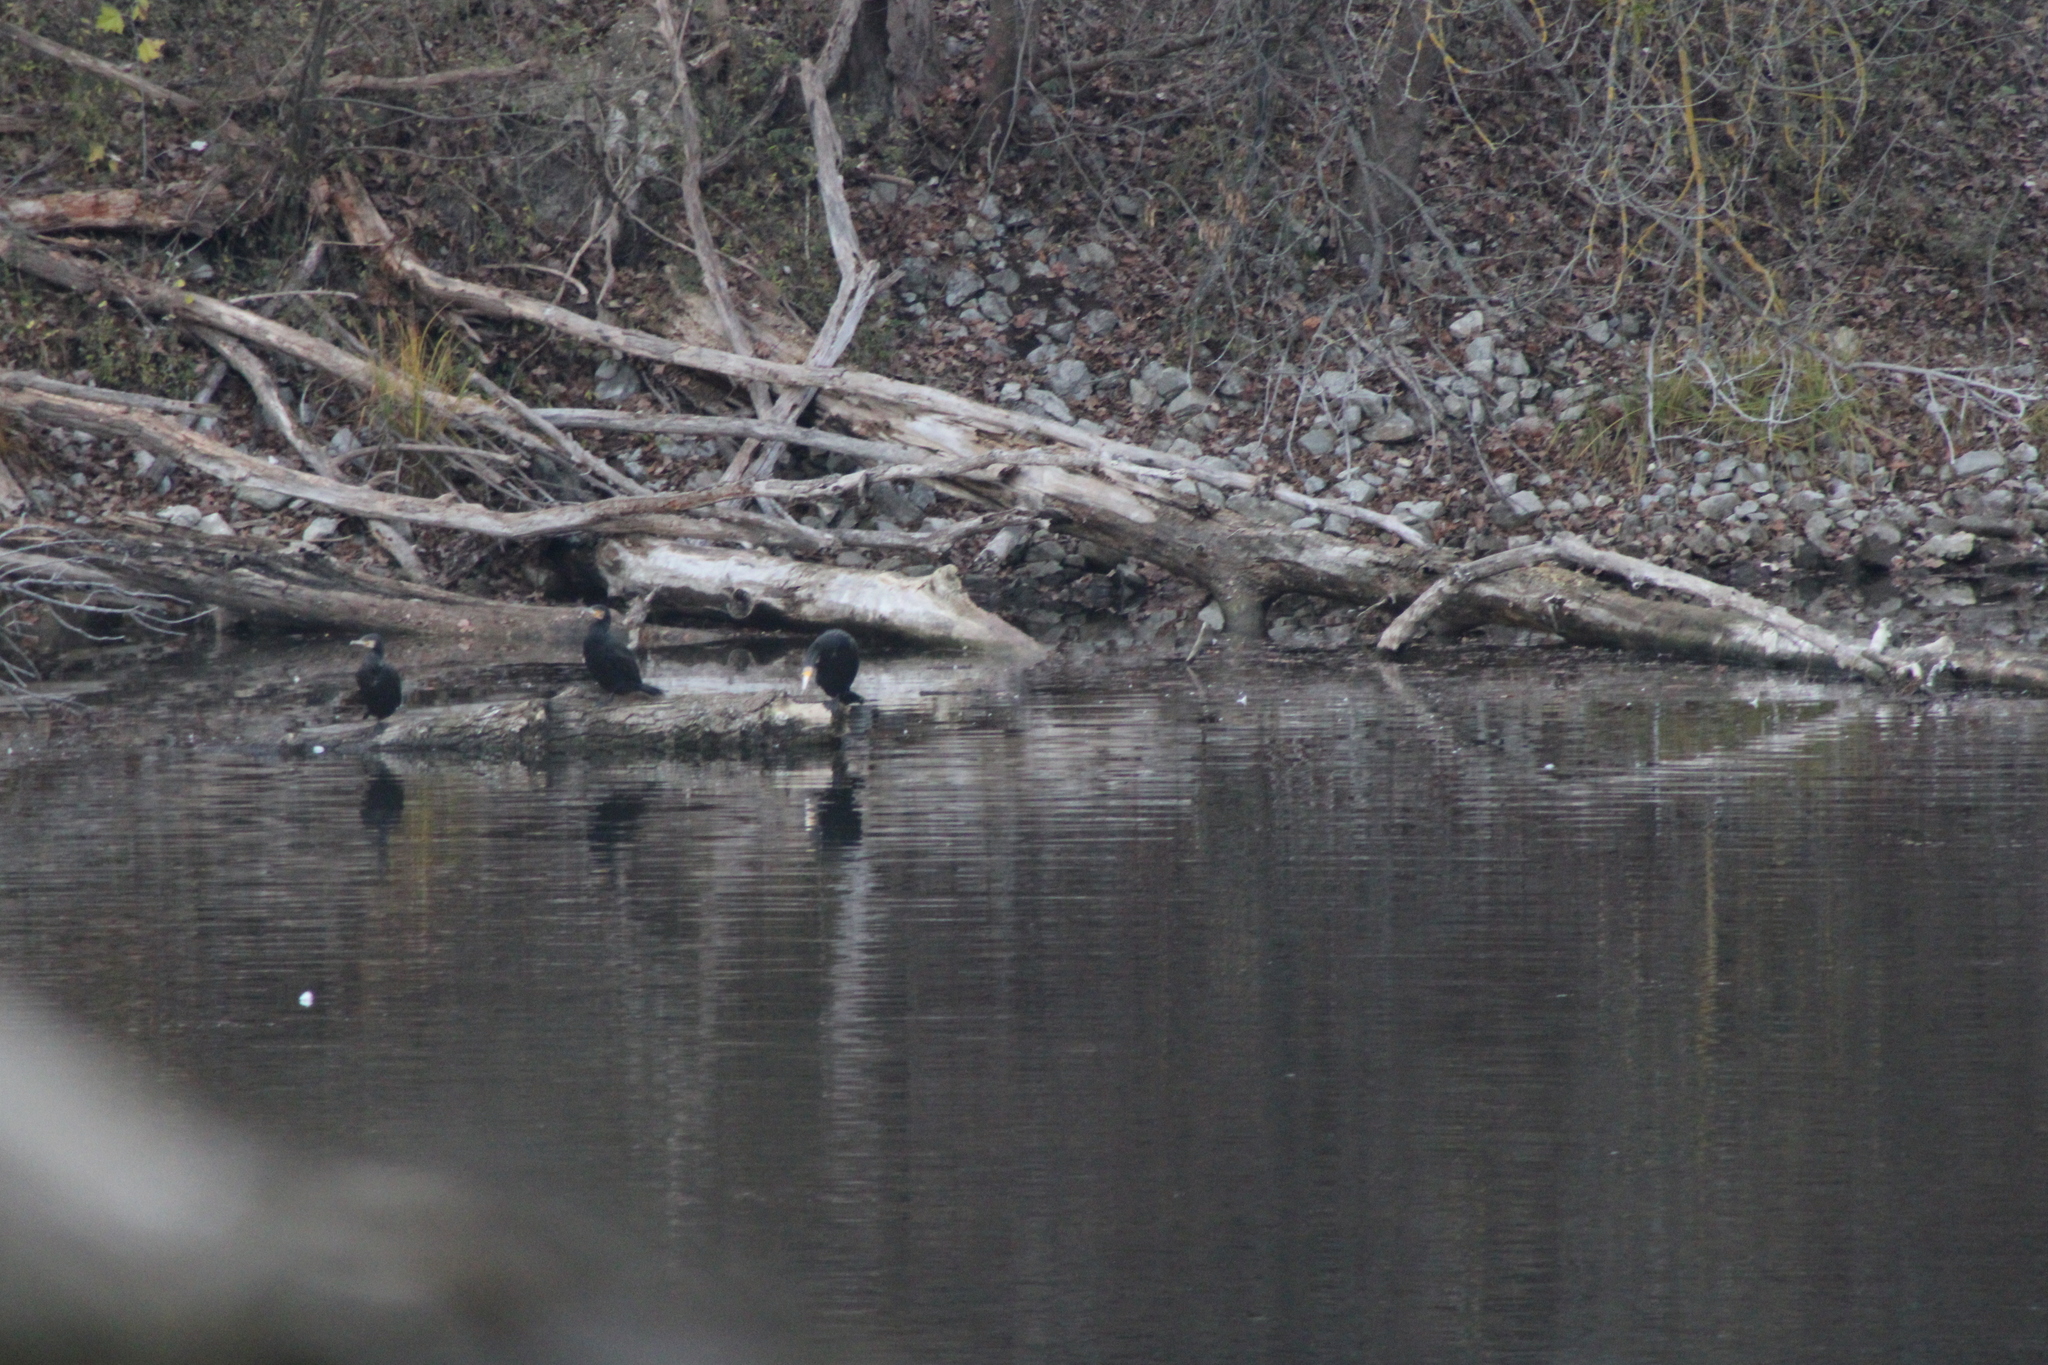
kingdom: Animalia
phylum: Chordata
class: Aves
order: Suliformes
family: Phalacrocoracidae
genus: Phalacrocorax
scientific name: Phalacrocorax carbo
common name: Great cormorant
